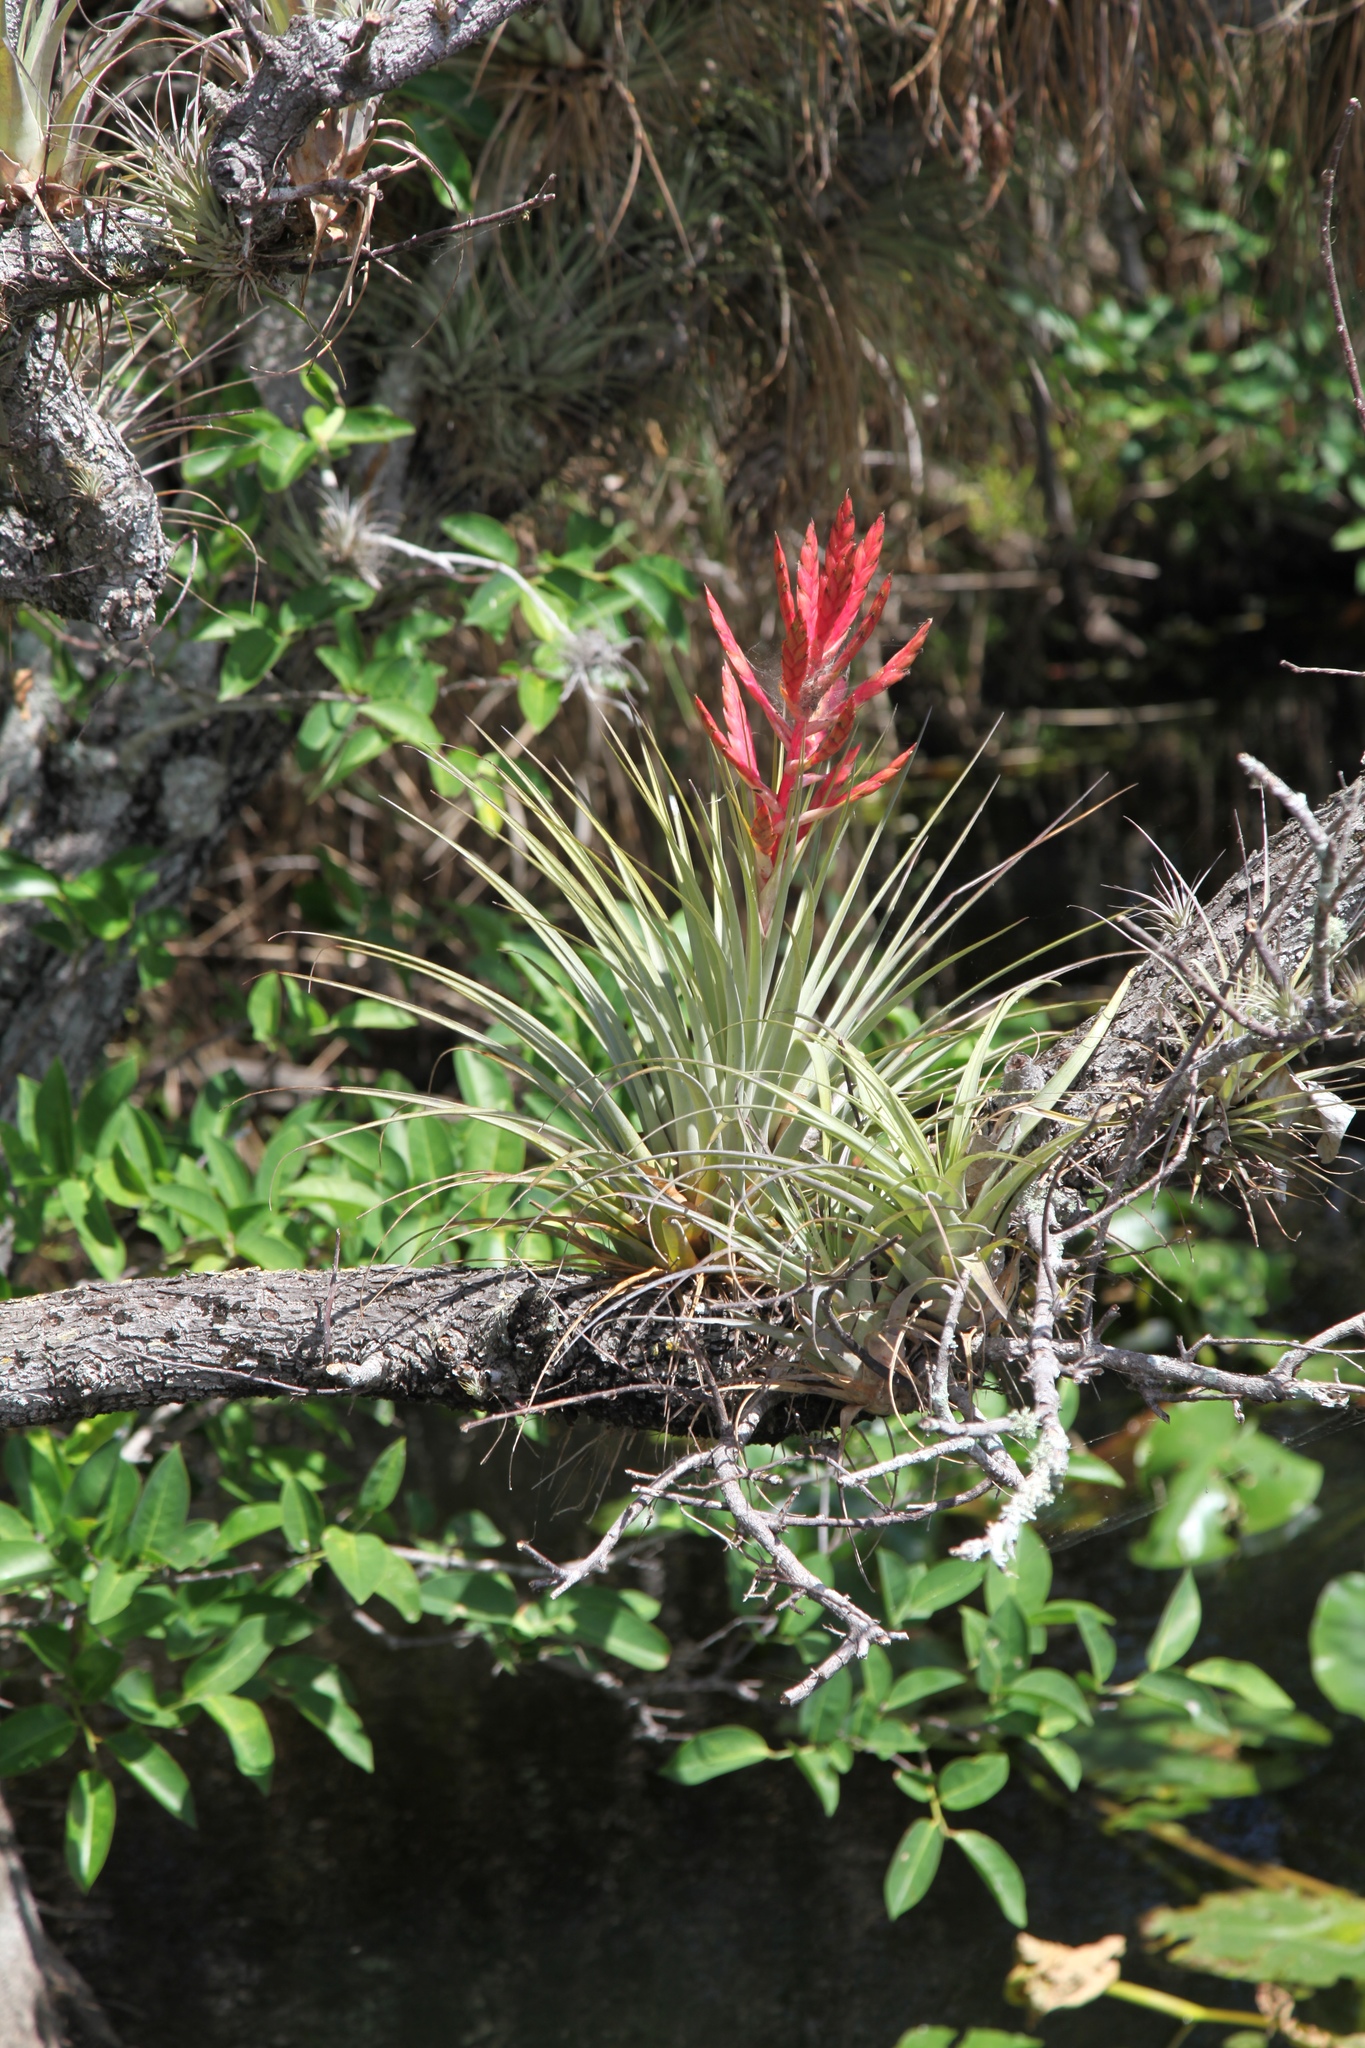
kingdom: Plantae
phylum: Tracheophyta
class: Liliopsida
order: Poales
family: Bromeliaceae
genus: Tillandsia
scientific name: Tillandsia fasciculata
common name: Giant airplant
